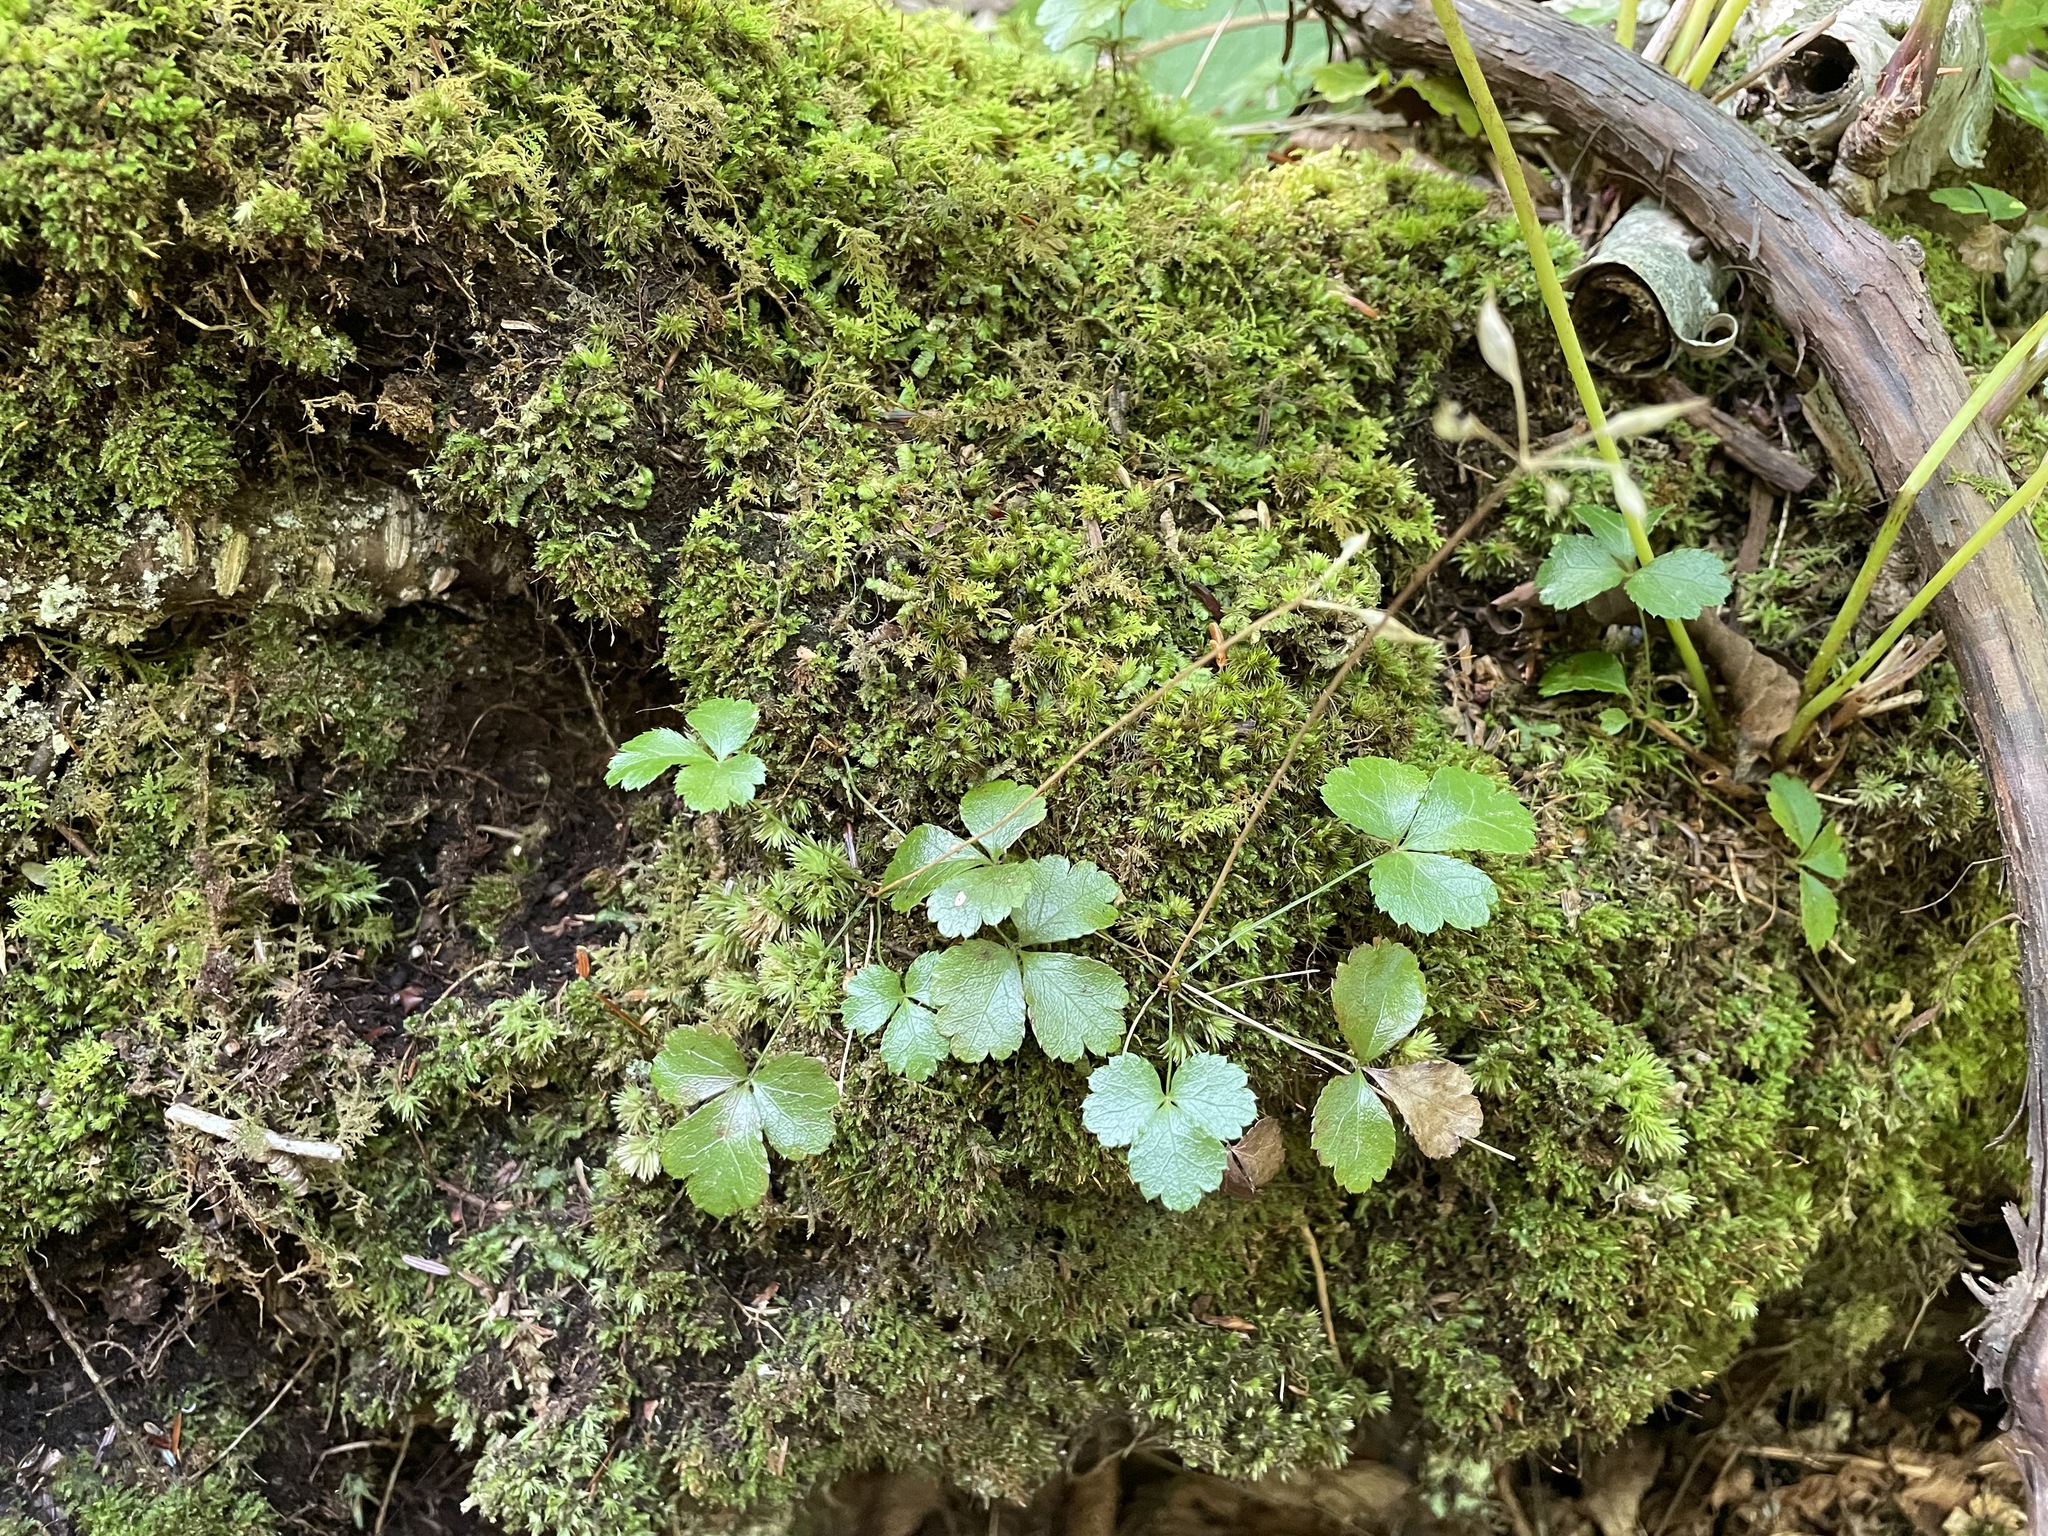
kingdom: Plantae
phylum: Tracheophyta
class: Magnoliopsida
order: Ranunculales
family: Ranunculaceae
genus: Coptis
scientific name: Coptis trifolia
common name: Canker-root
